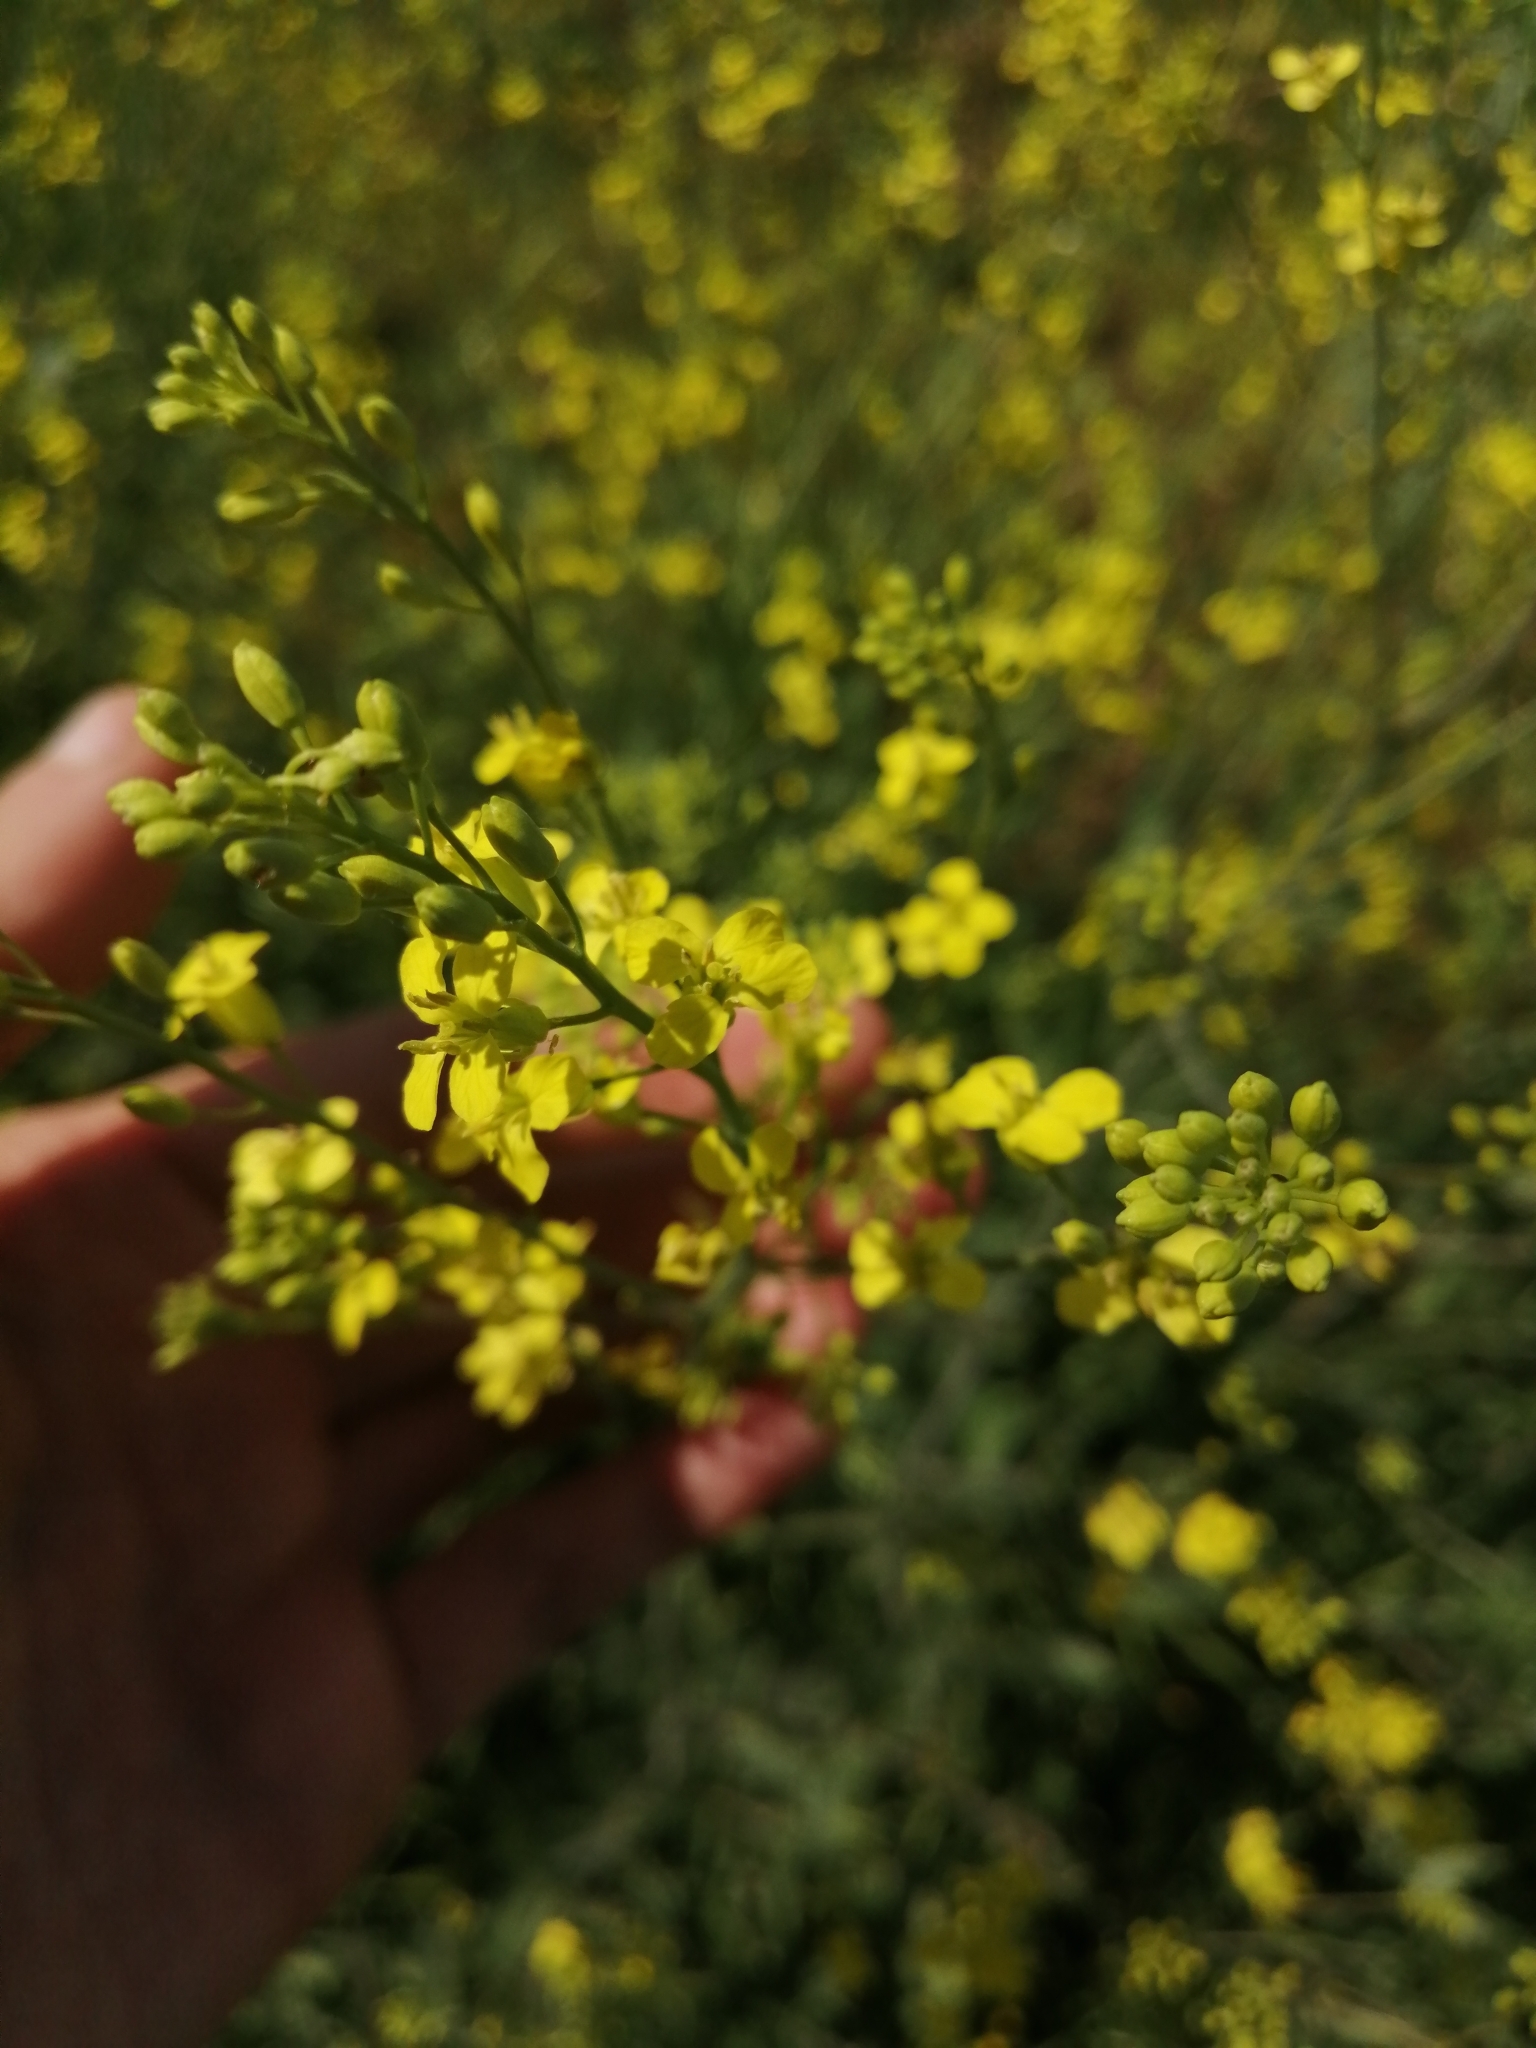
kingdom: Plantae
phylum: Tracheophyta
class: Magnoliopsida
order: Brassicales
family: Brassicaceae
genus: Sisymbrium
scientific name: Sisymbrium volgense
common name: Russian mustard
